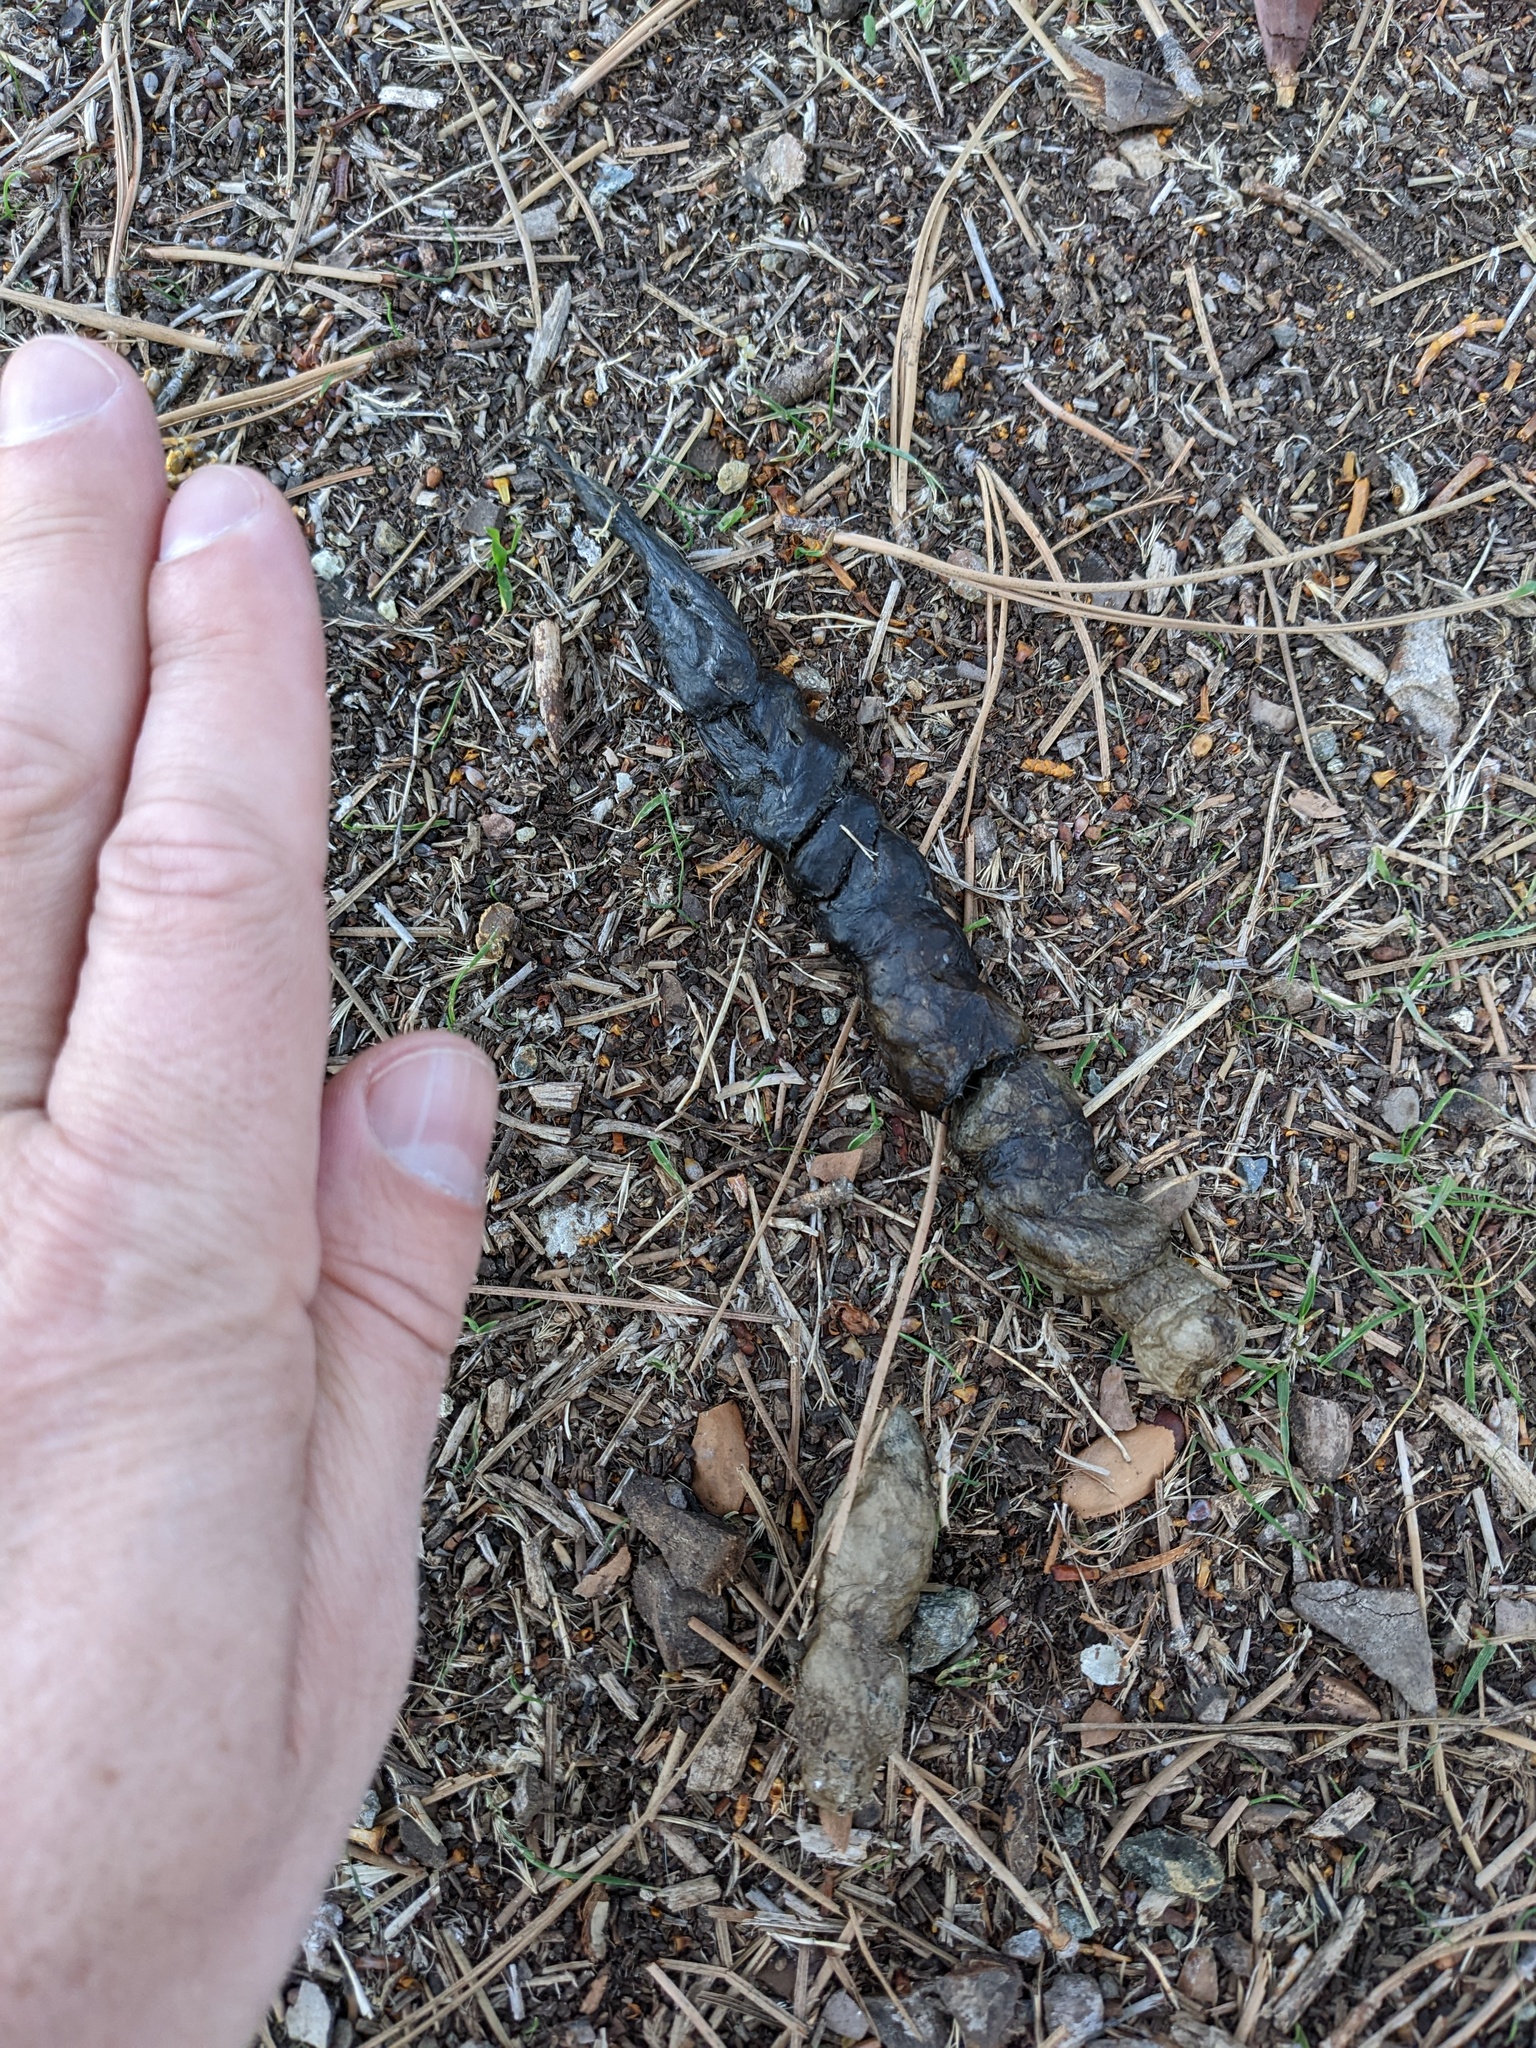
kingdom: Animalia
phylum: Chordata
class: Mammalia
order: Carnivora
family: Felidae
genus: Lynx
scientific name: Lynx rufus
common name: Bobcat
